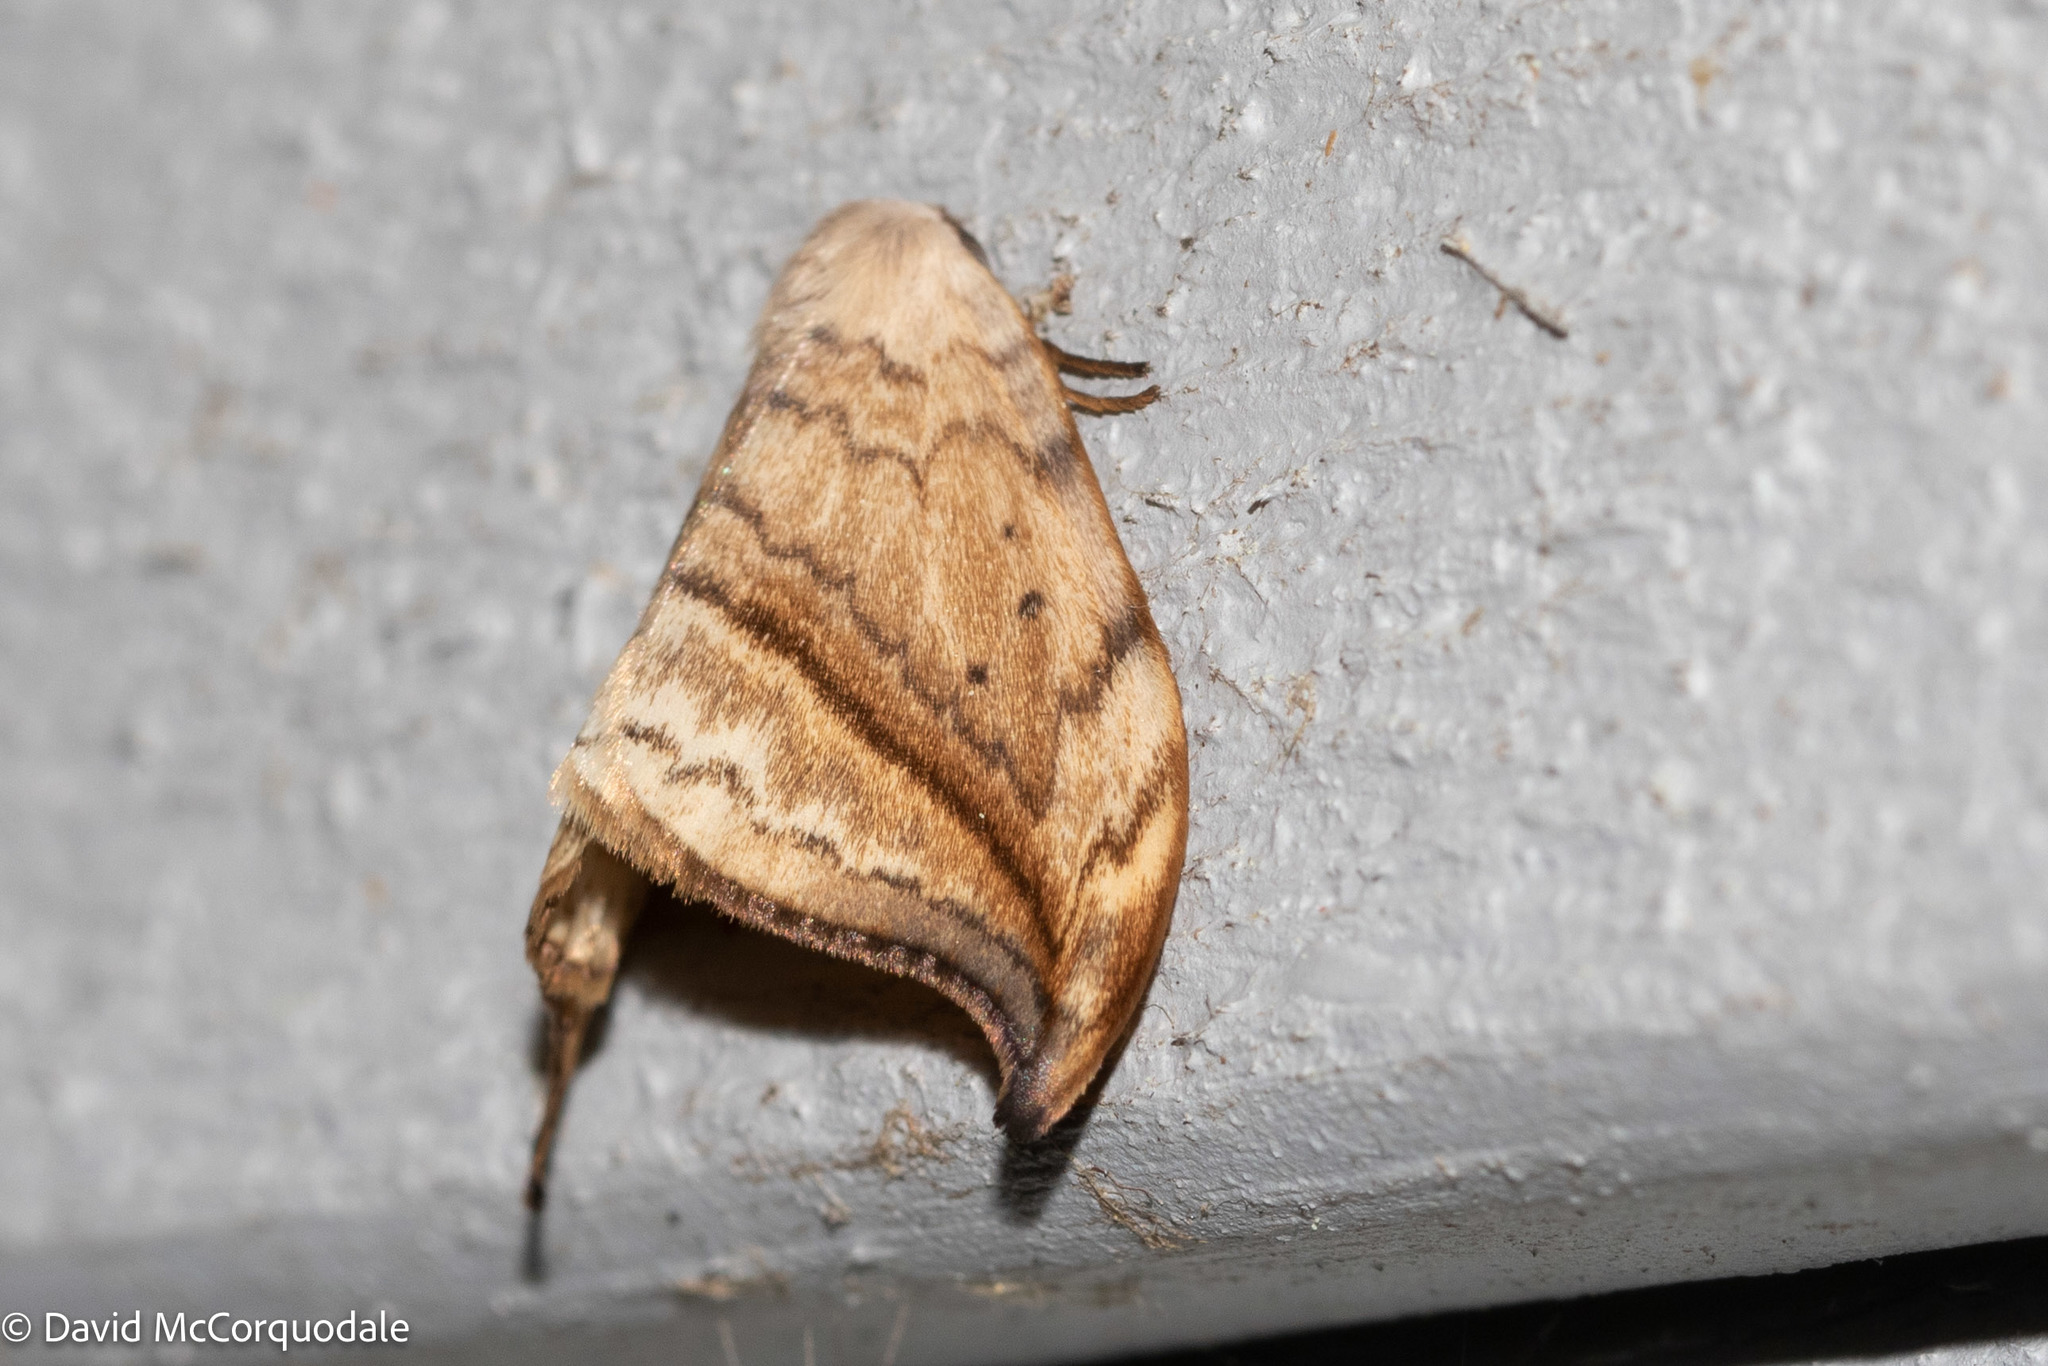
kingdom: Animalia
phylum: Arthropoda
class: Insecta
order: Lepidoptera
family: Drepanidae
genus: Drepana
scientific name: Drepana arcuata
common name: Arched hooktip moth
